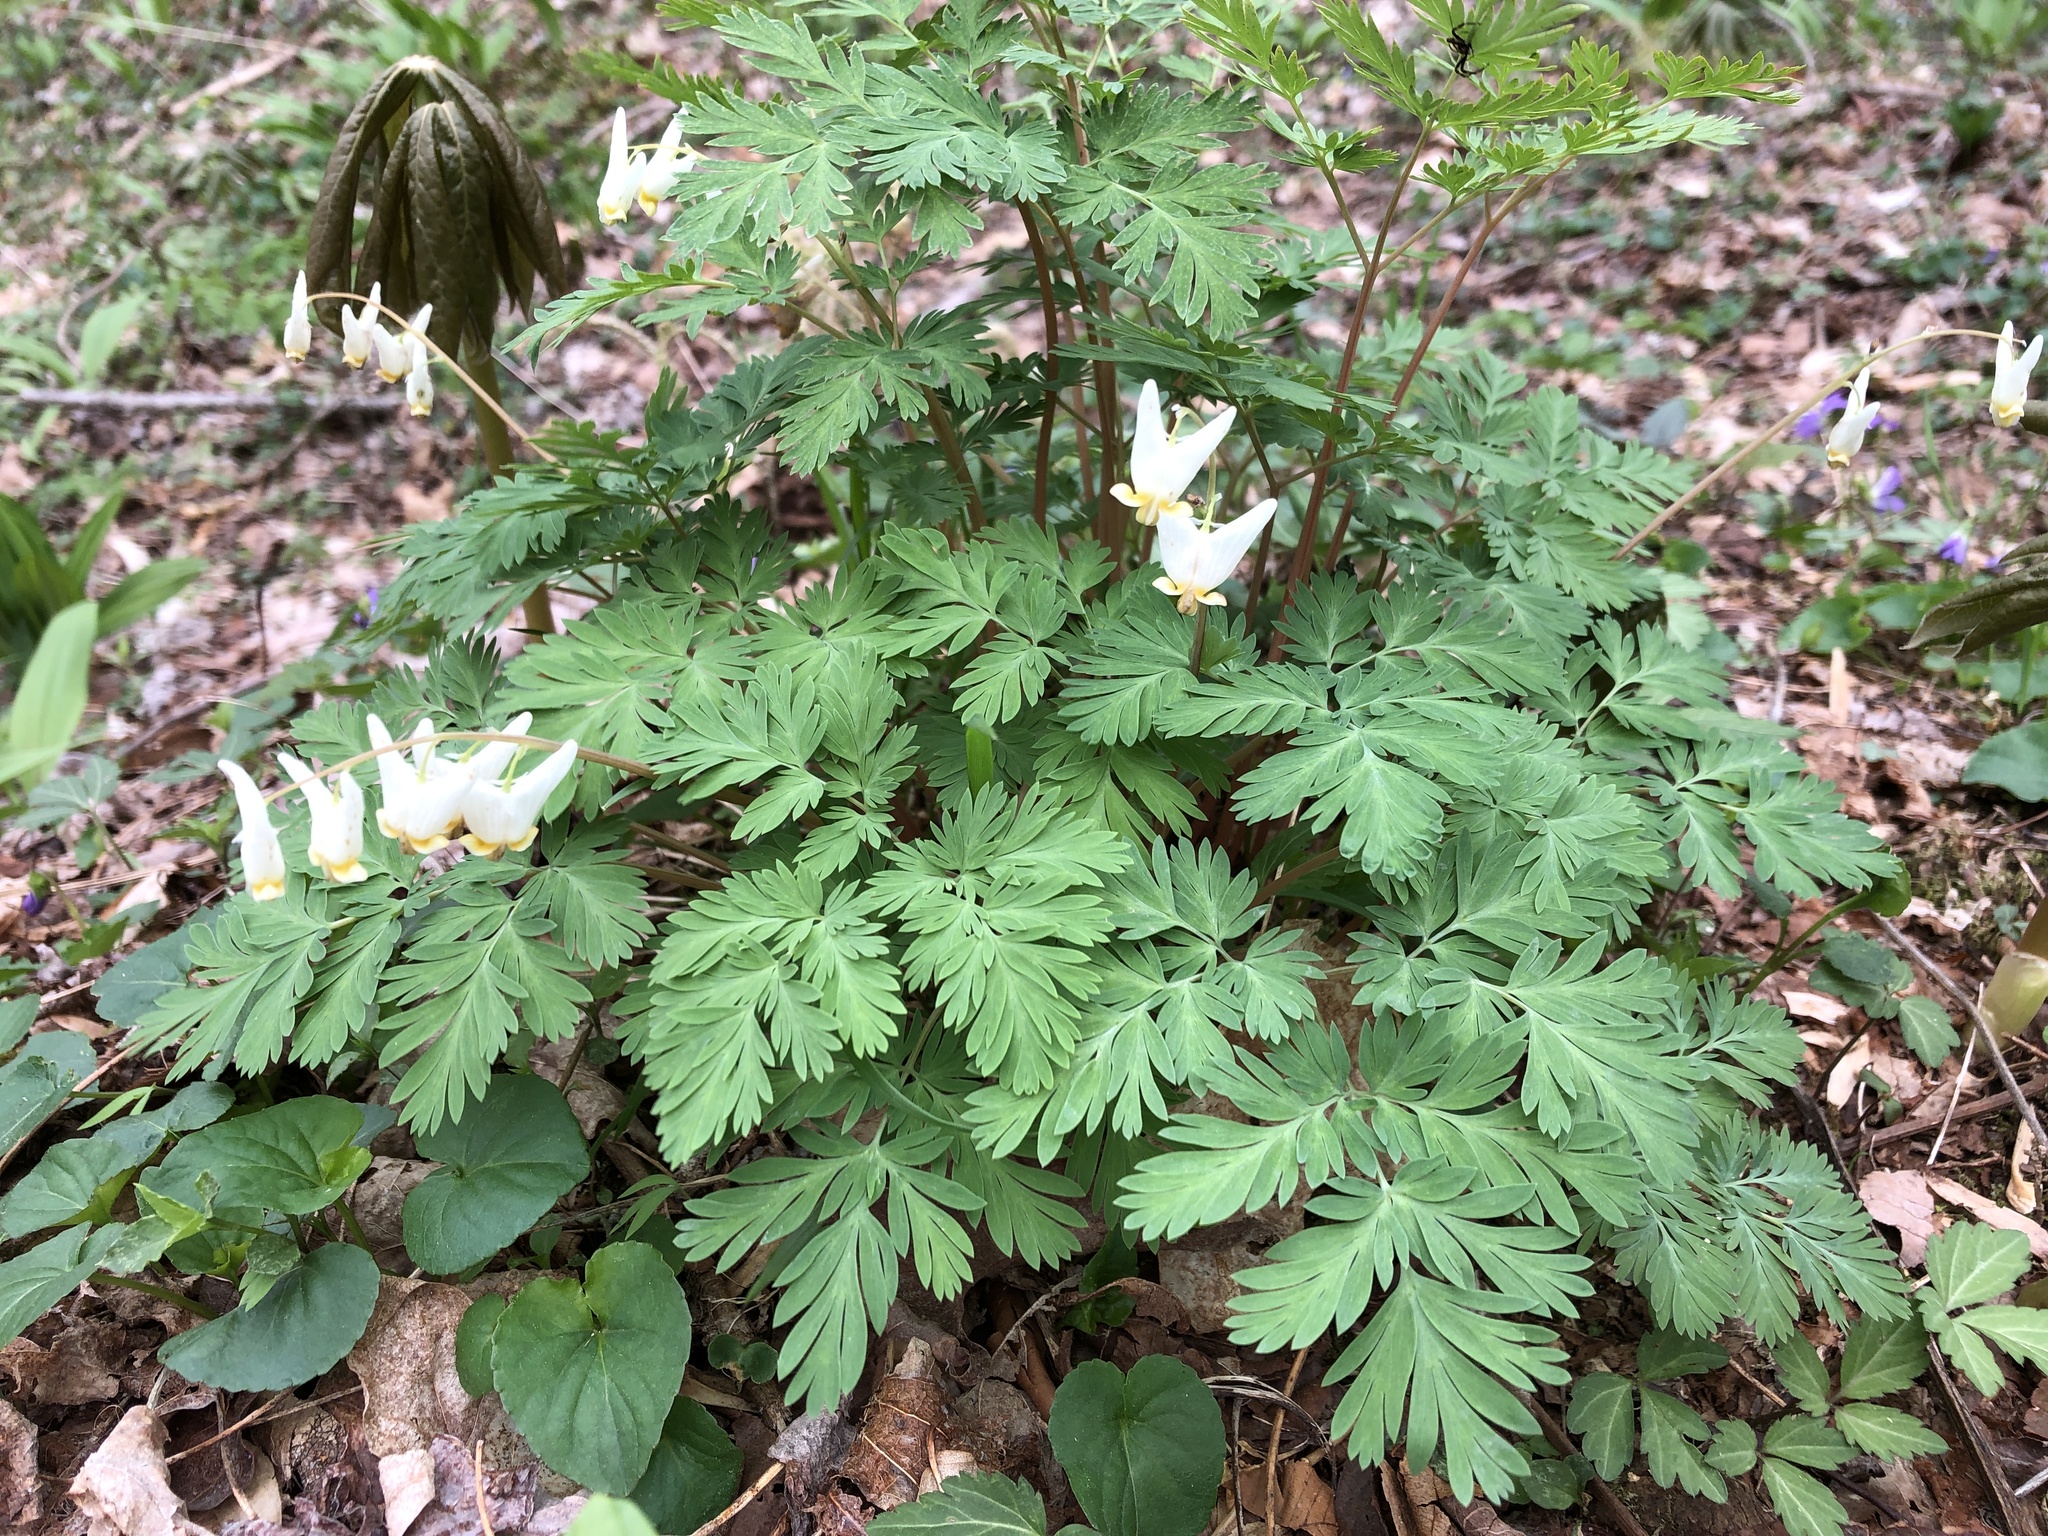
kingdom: Plantae
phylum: Tracheophyta
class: Magnoliopsida
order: Ranunculales
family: Papaveraceae
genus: Dicentra
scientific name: Dicentra cucullaria
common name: Dutchman's breeches
